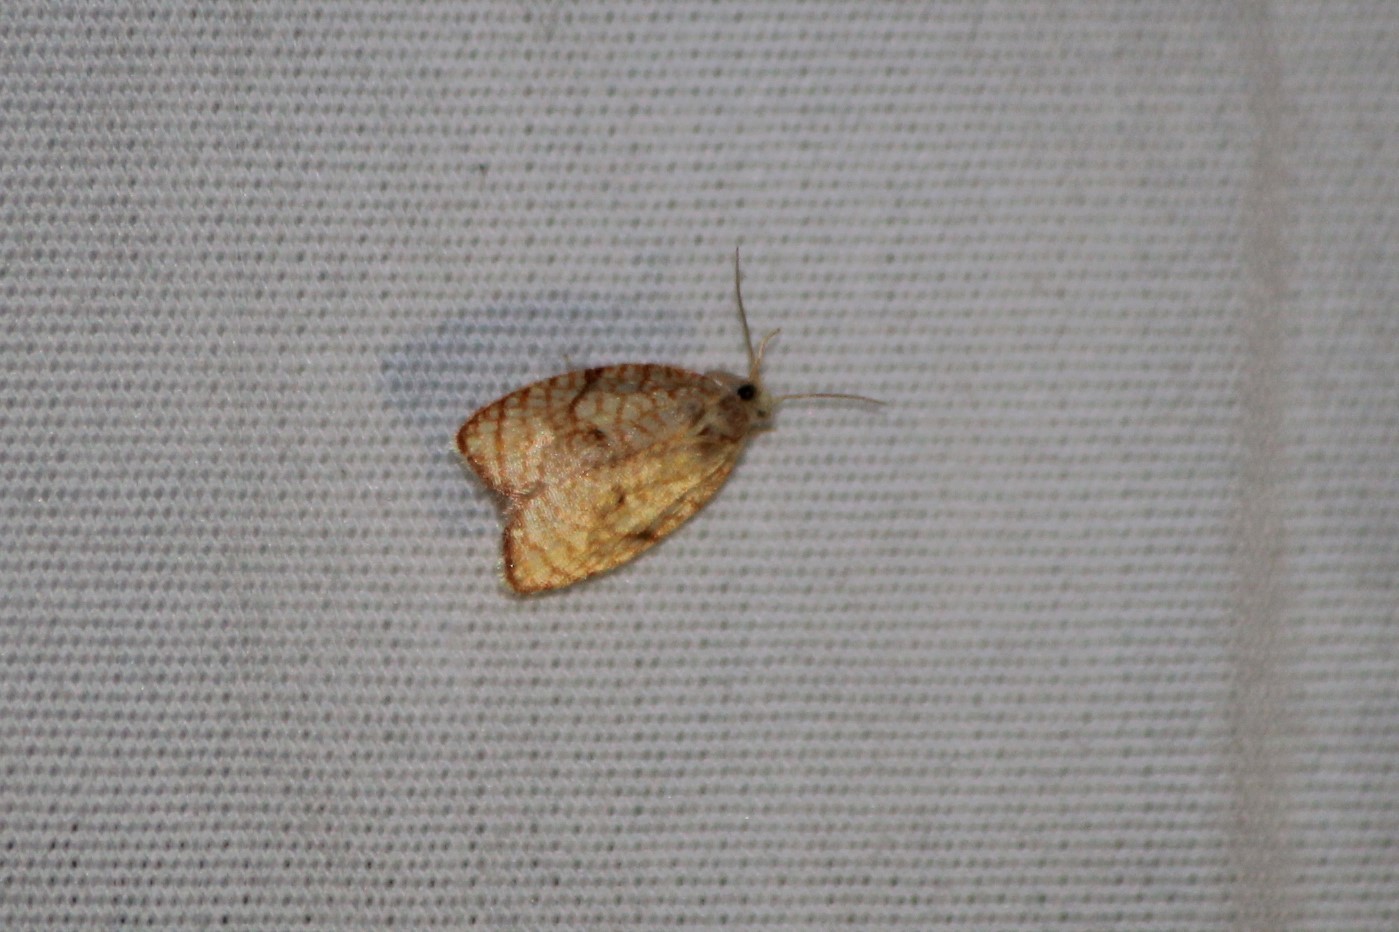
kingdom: Animalia
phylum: Arthropoda
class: Insecta
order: Lepidoptera
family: Tortricidae
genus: Acleris
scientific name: Acleris forsskaleana
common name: Maple button
